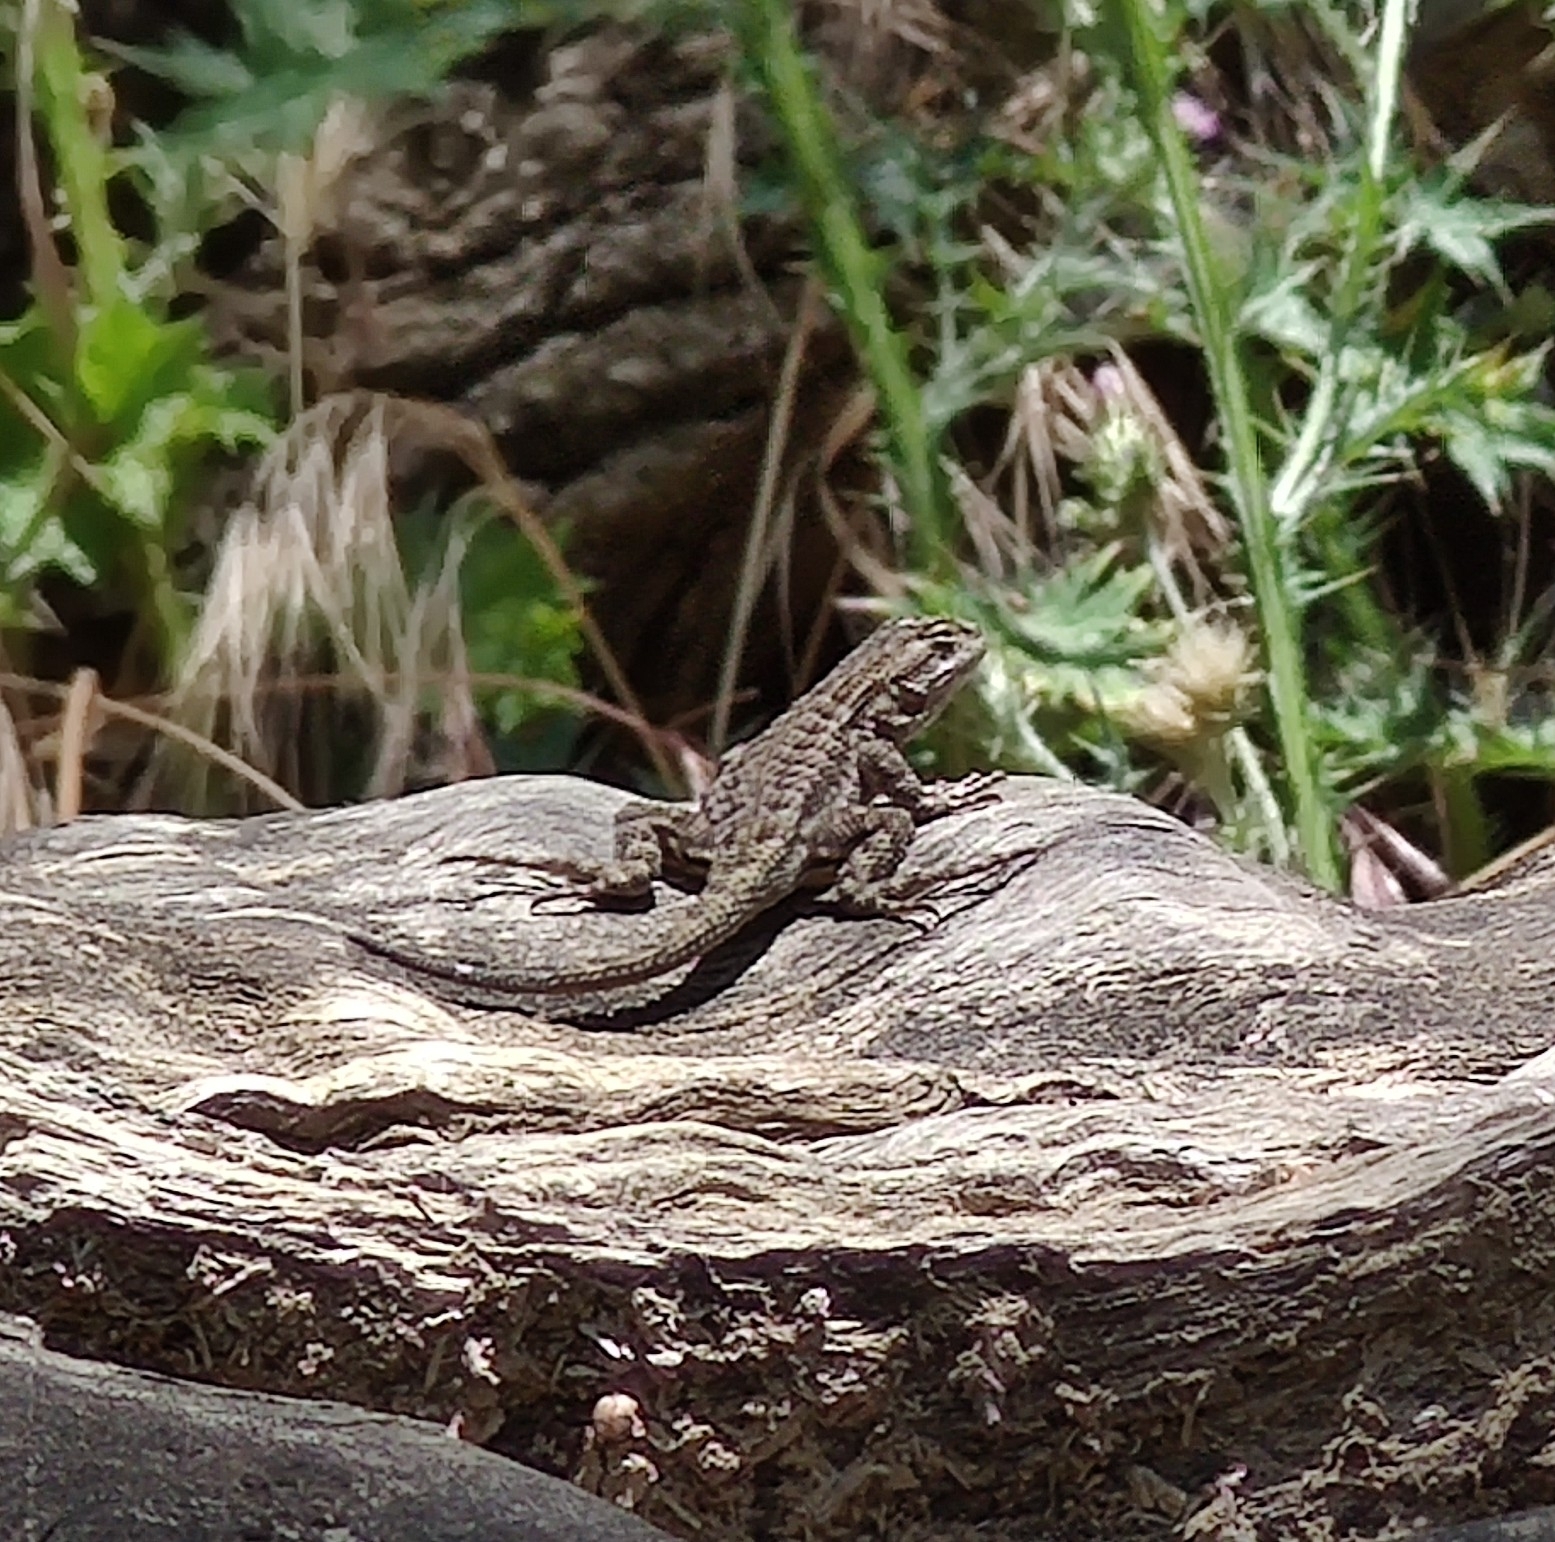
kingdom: Animalia
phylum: Chordata
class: Squamata
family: Phrynosomatidae
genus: Sceloporus
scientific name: Sceloporus occidentalis
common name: Western fence lizard
